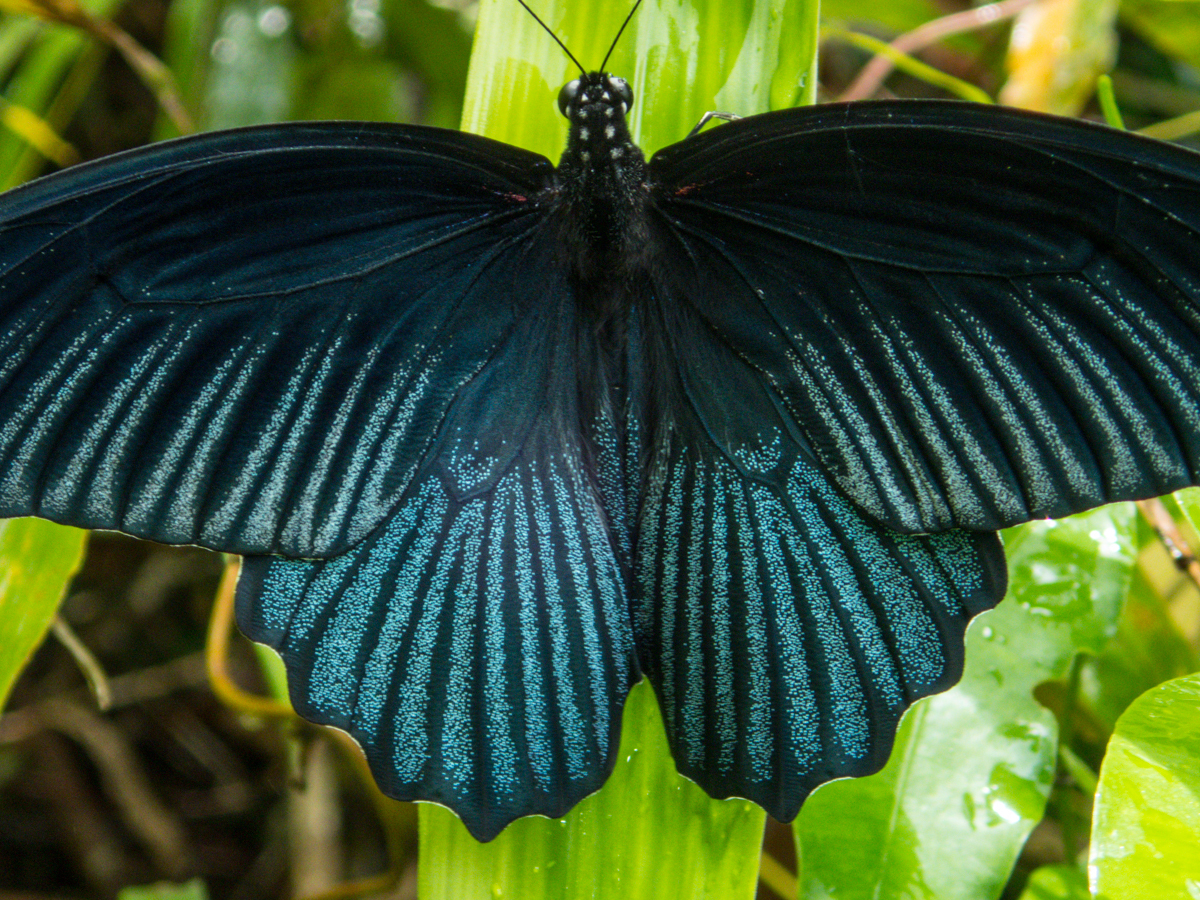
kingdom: Animalia
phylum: Arthropoda
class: Insecta
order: Lepidoptera
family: Papilionidae
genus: Papilio
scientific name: Papilio memnon
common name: Great mormon
